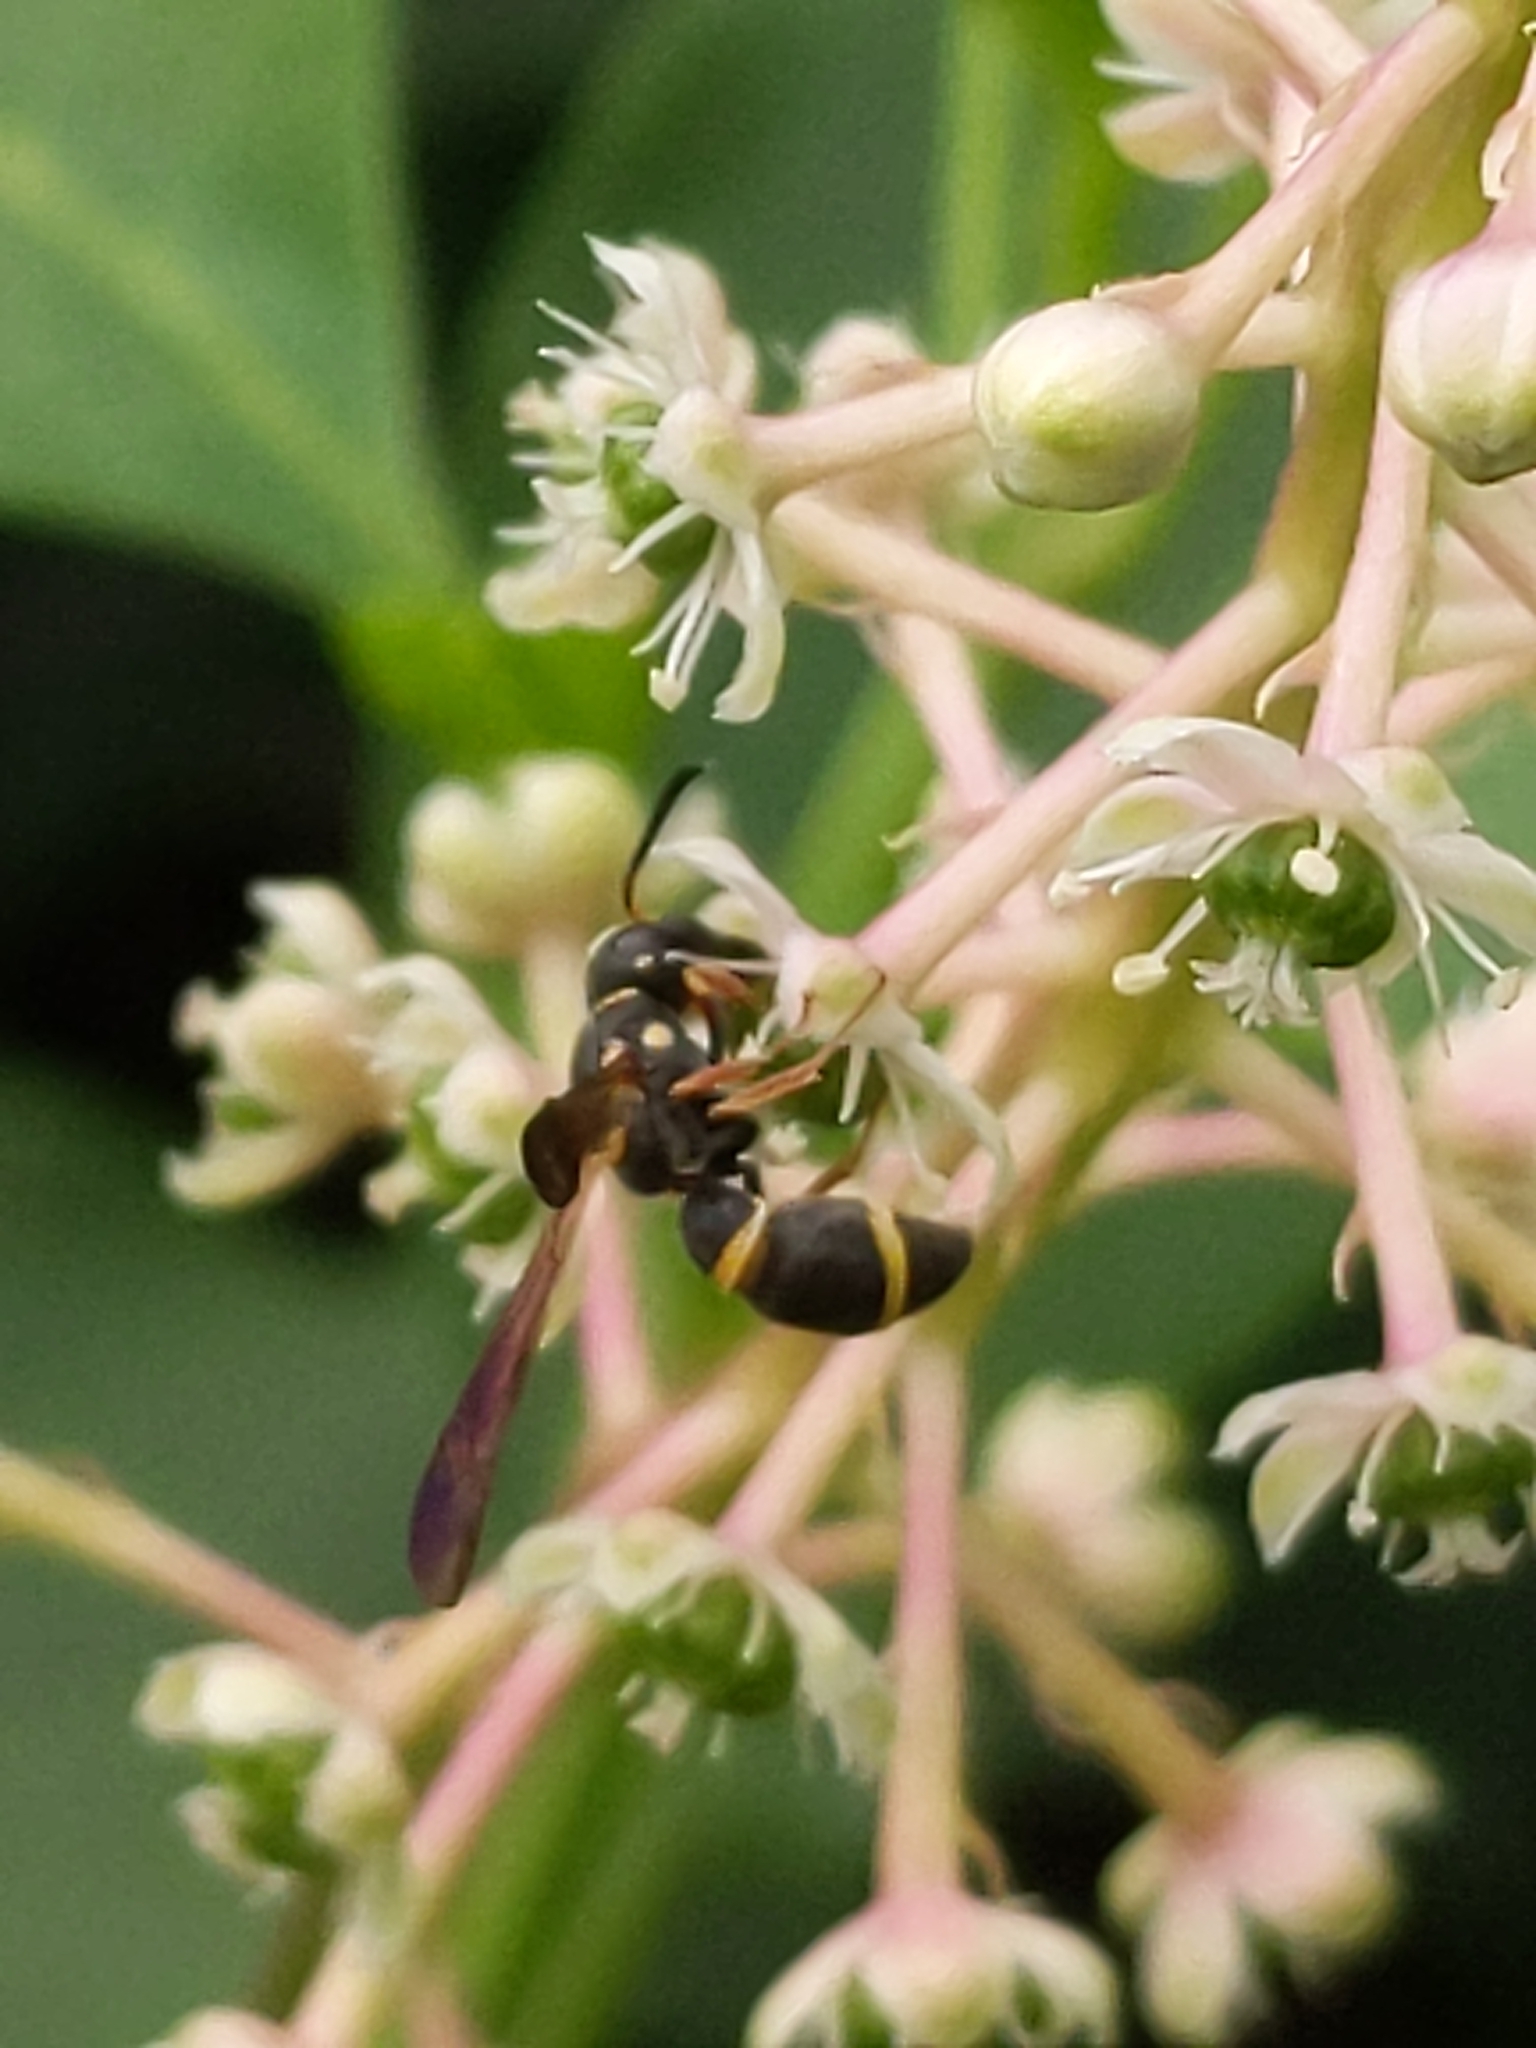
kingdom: Animalia
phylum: Arthropoda
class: Insecta
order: Hymenoptera
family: Eumenidae
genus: Parancistrocerus
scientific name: Parancistrocerus perennis
